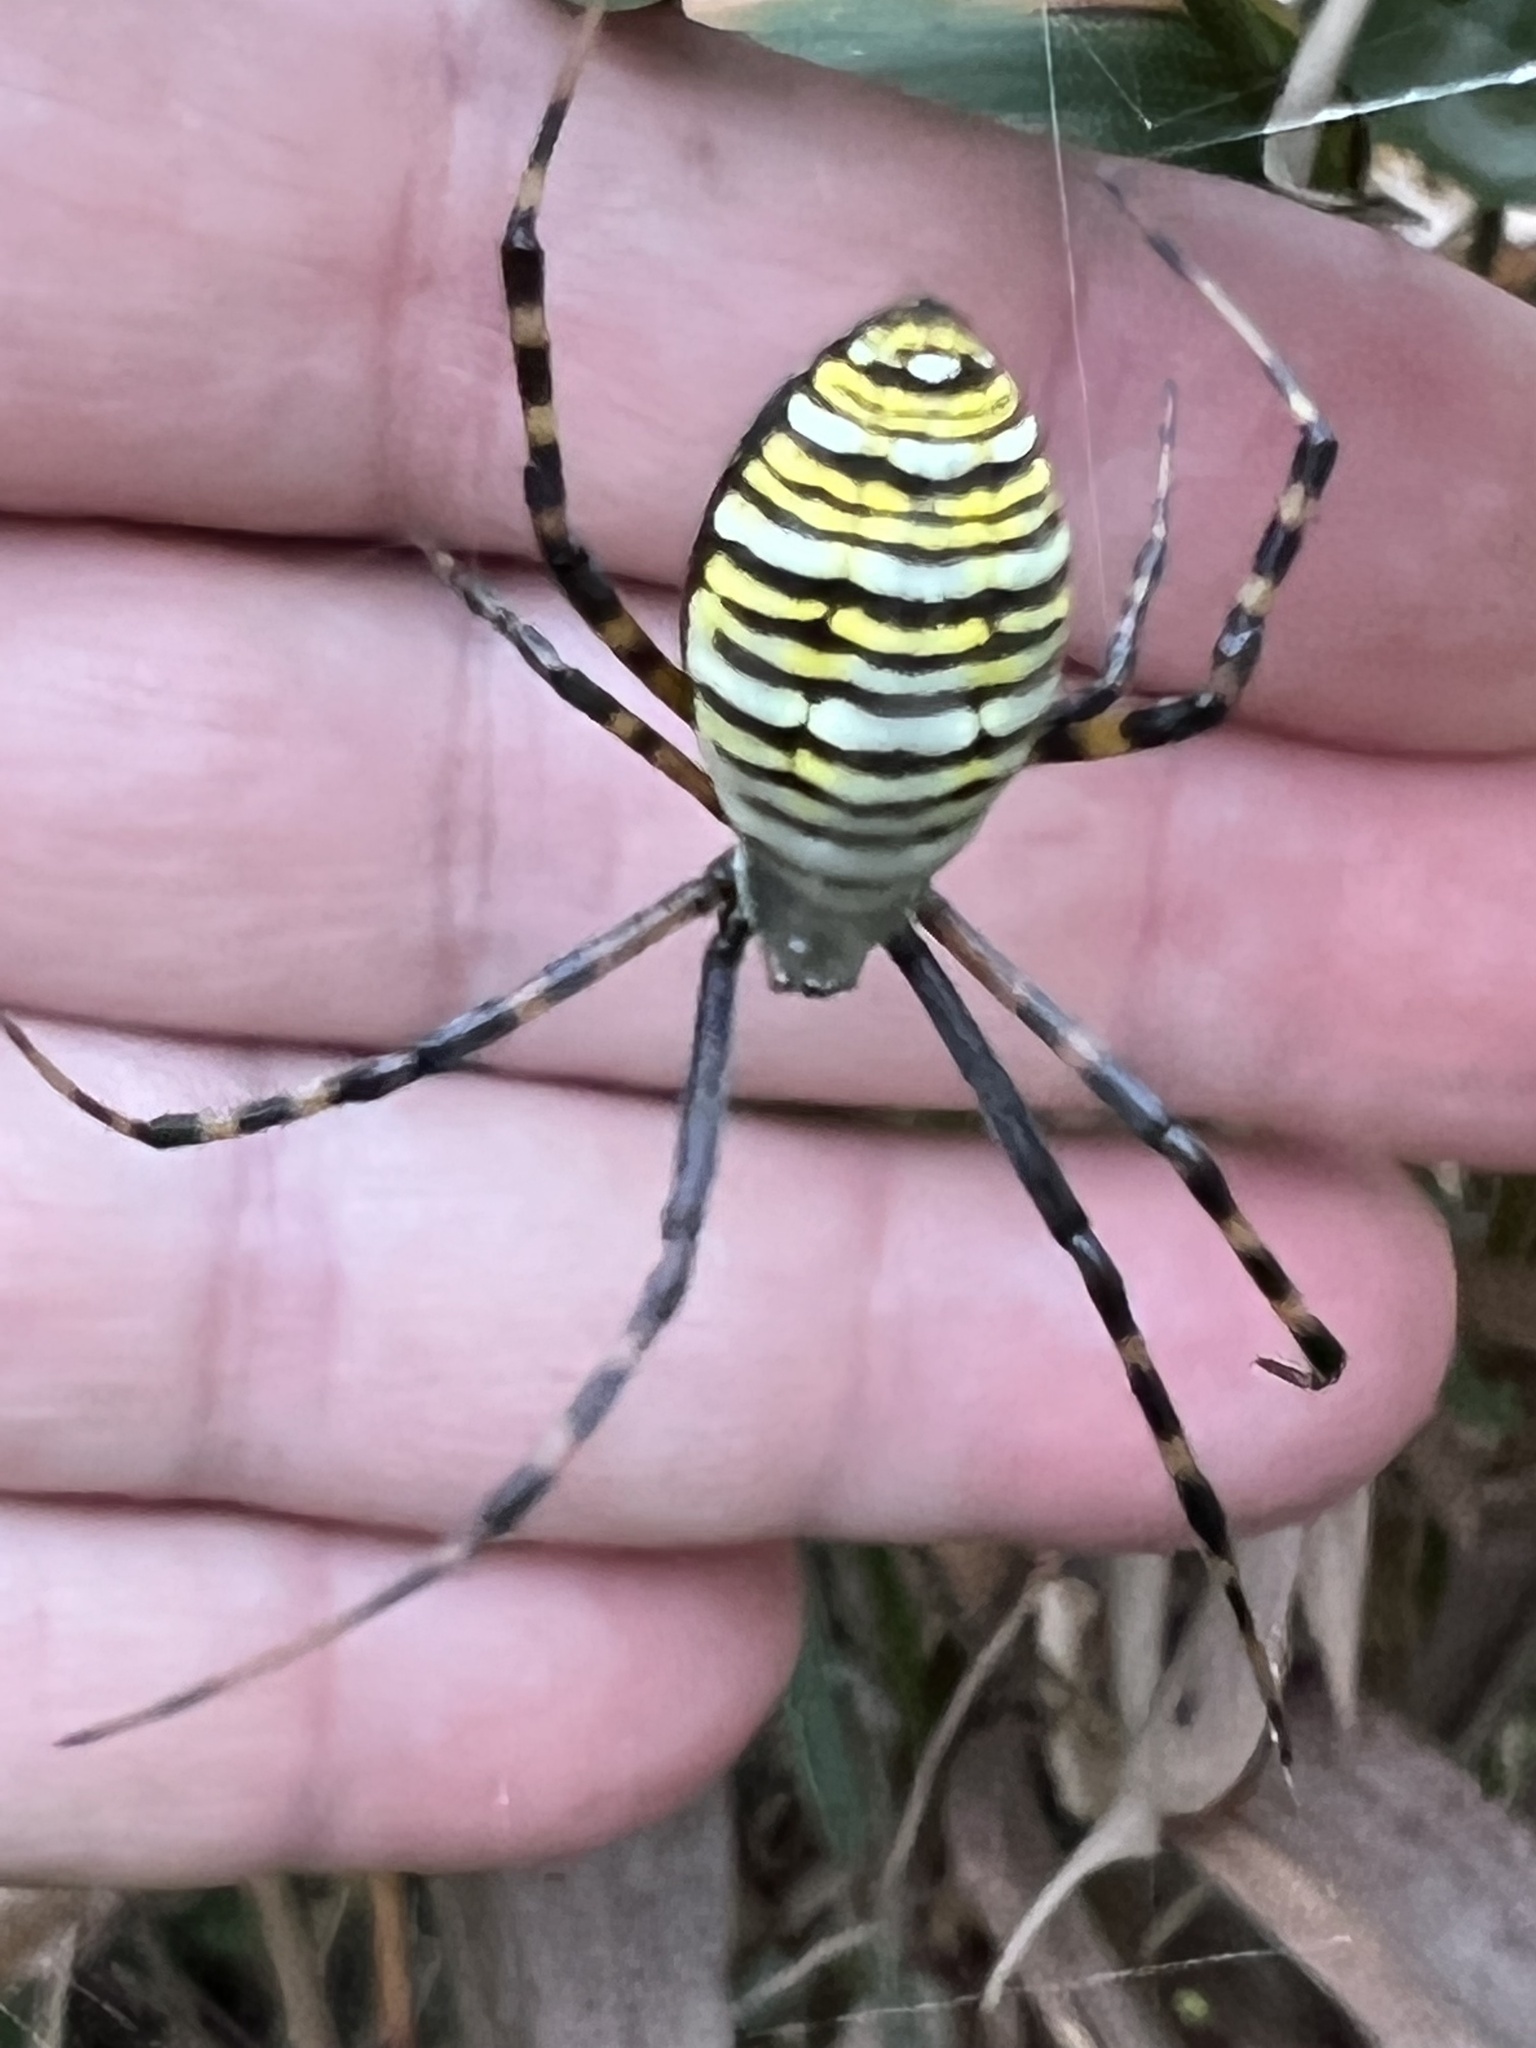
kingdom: Animalia
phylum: Arthropoda
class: Arachnida
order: Araneae
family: Araneidae
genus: Argiope
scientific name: Argiope trifasciata
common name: Banded garden spider
